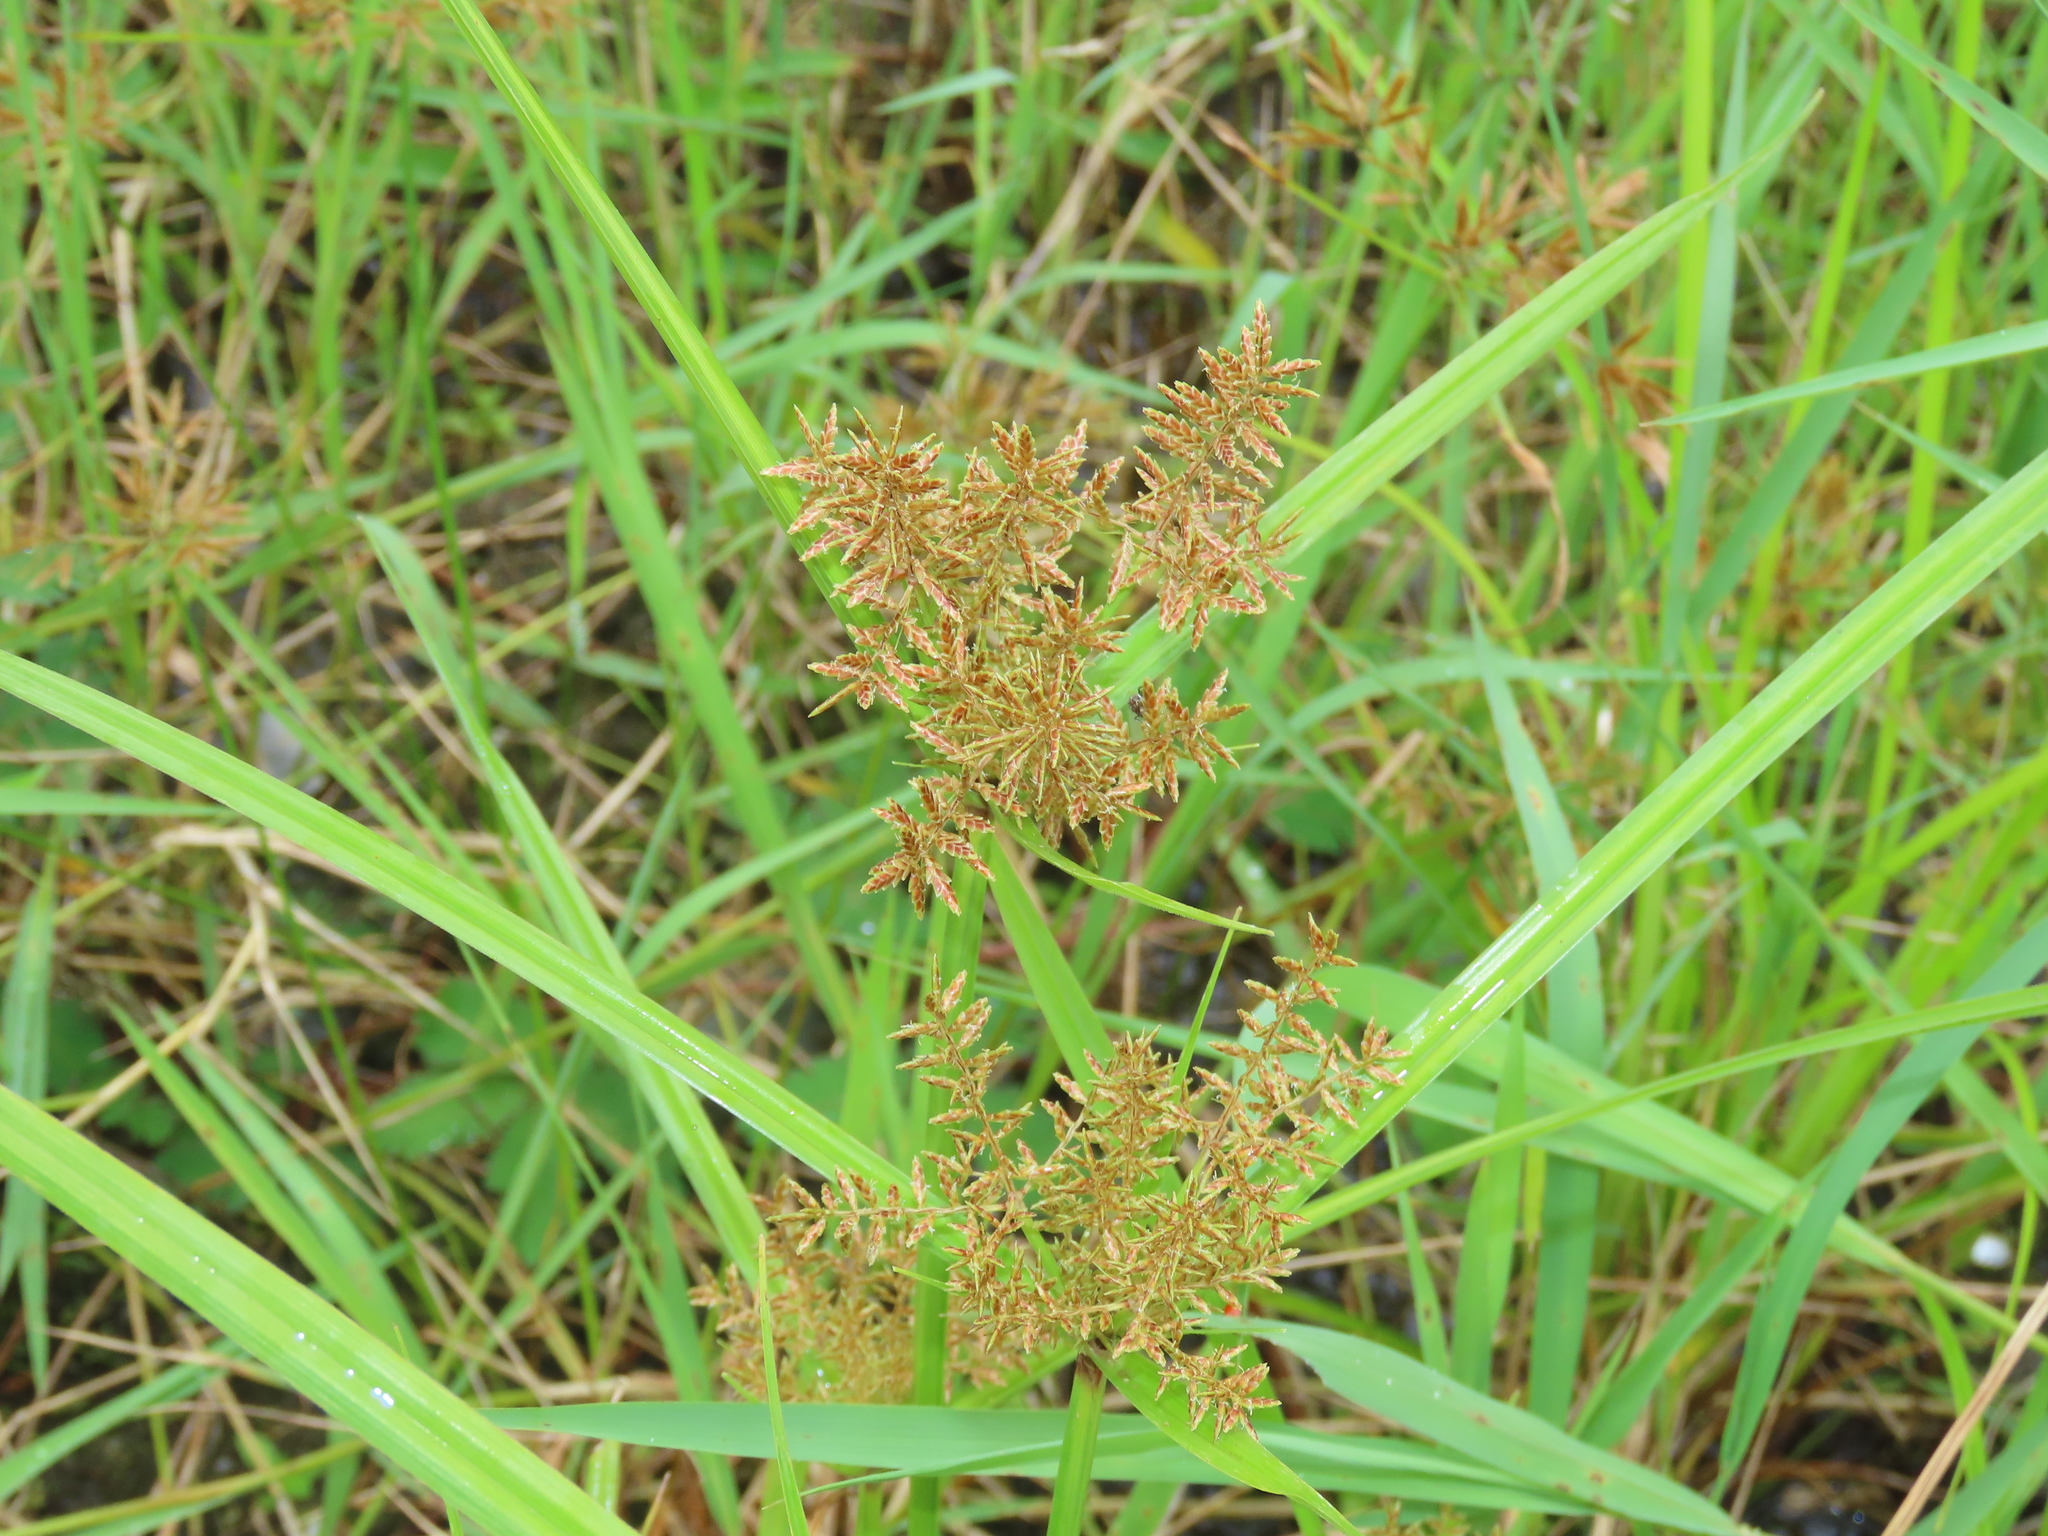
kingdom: Plantae
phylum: Tracheophyta
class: Liliopsida
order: Poales
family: Cyperaceae
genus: Cyperus
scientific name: Cyperus pilosus
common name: Fuzzy flatsedge
